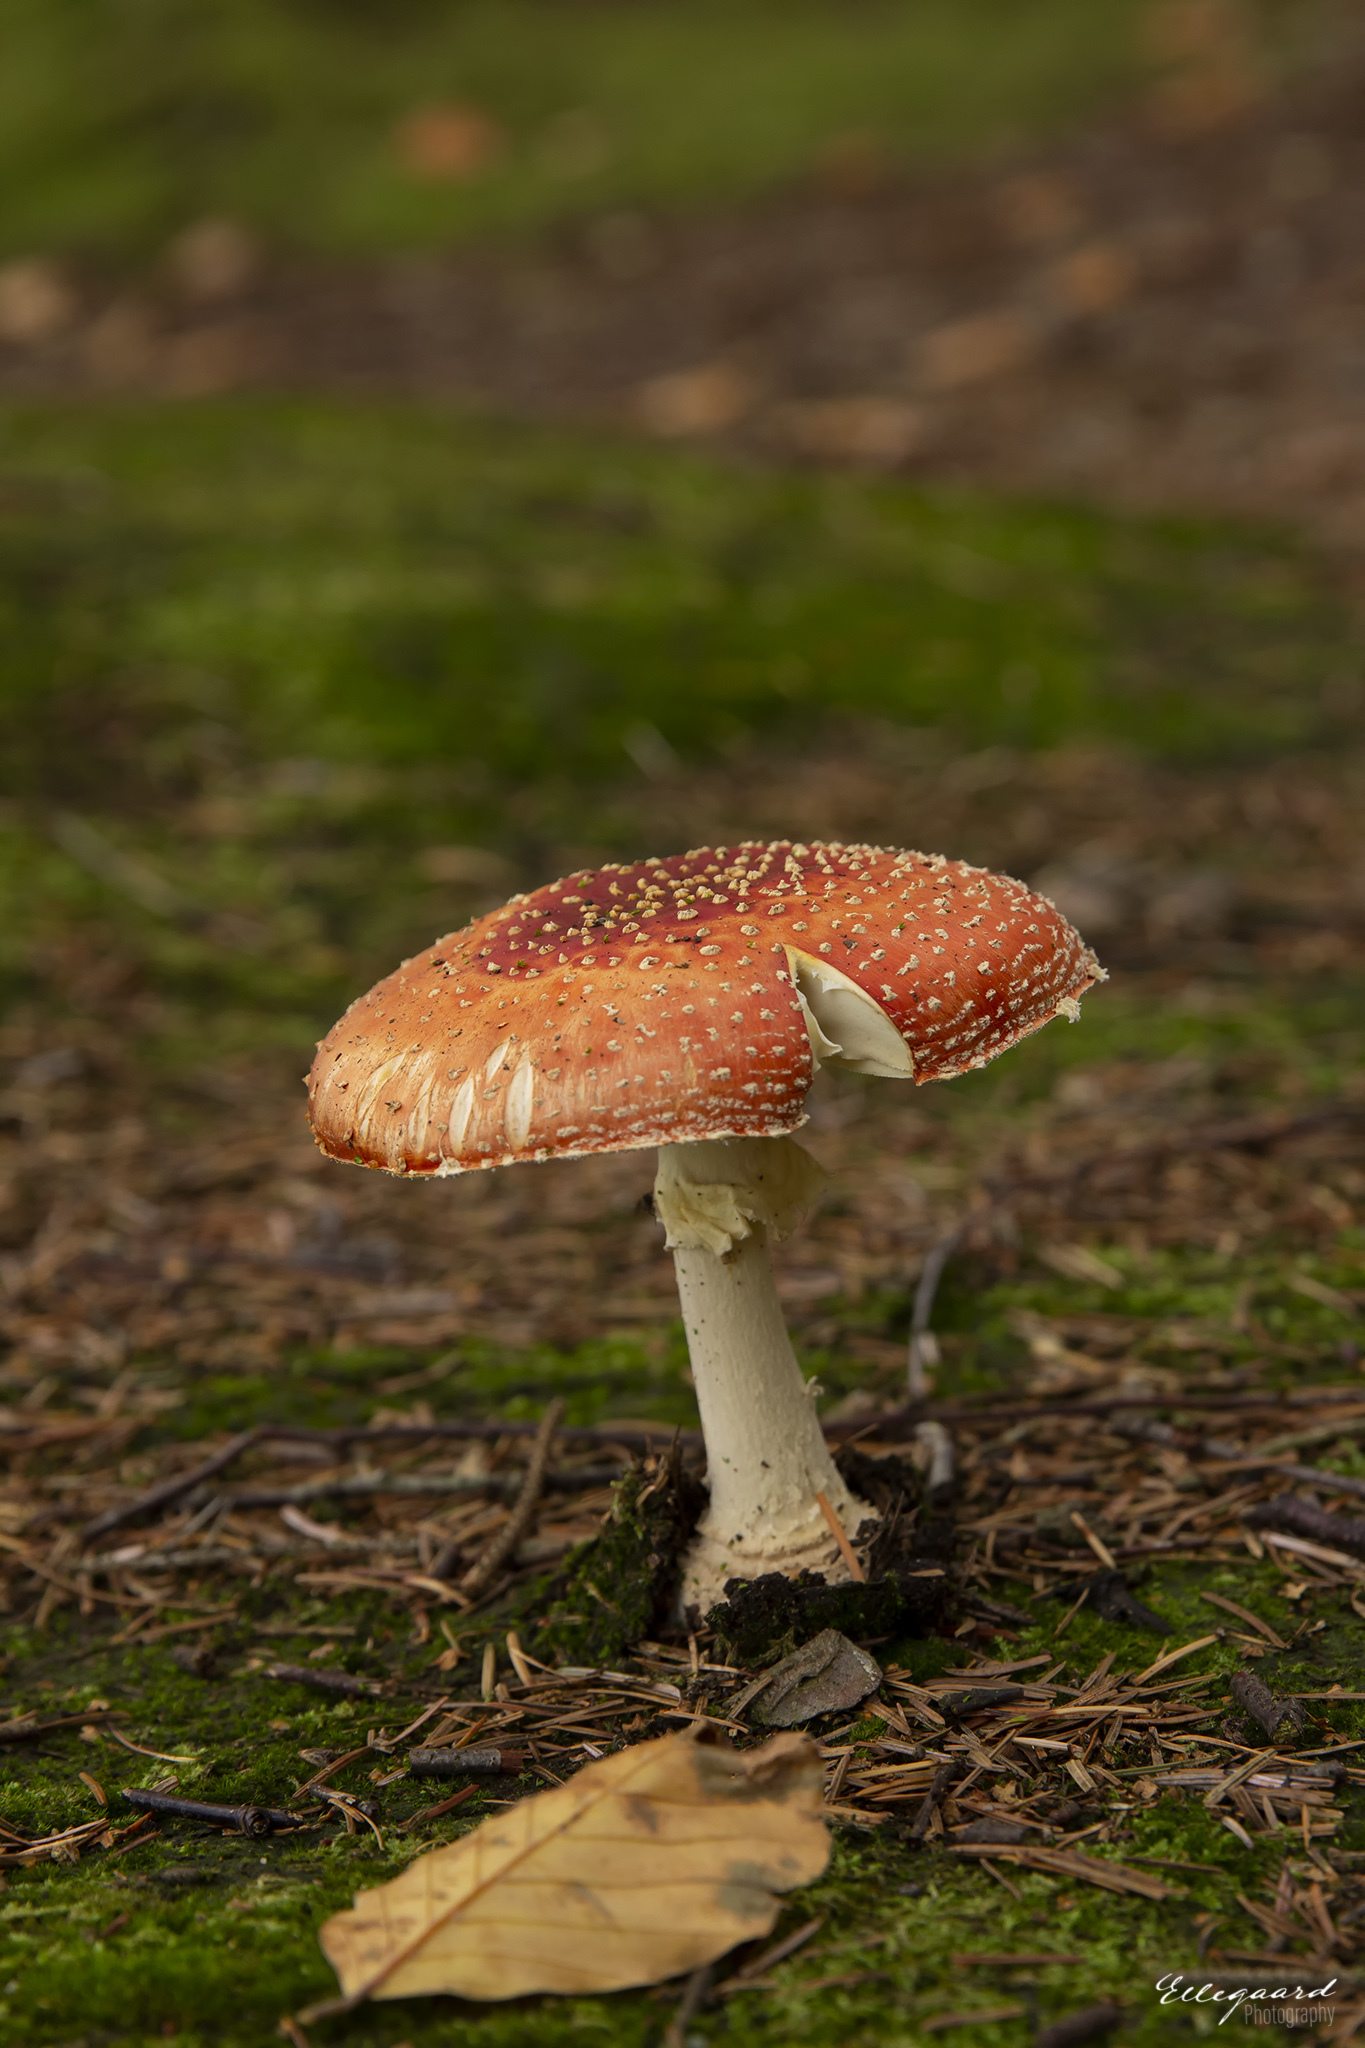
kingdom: Fungi
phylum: Basidiomycota
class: Agaricomycetes
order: Agaricales
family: Amanitaceae
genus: Amanita
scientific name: Amanita muscaria
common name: Fly agaric
